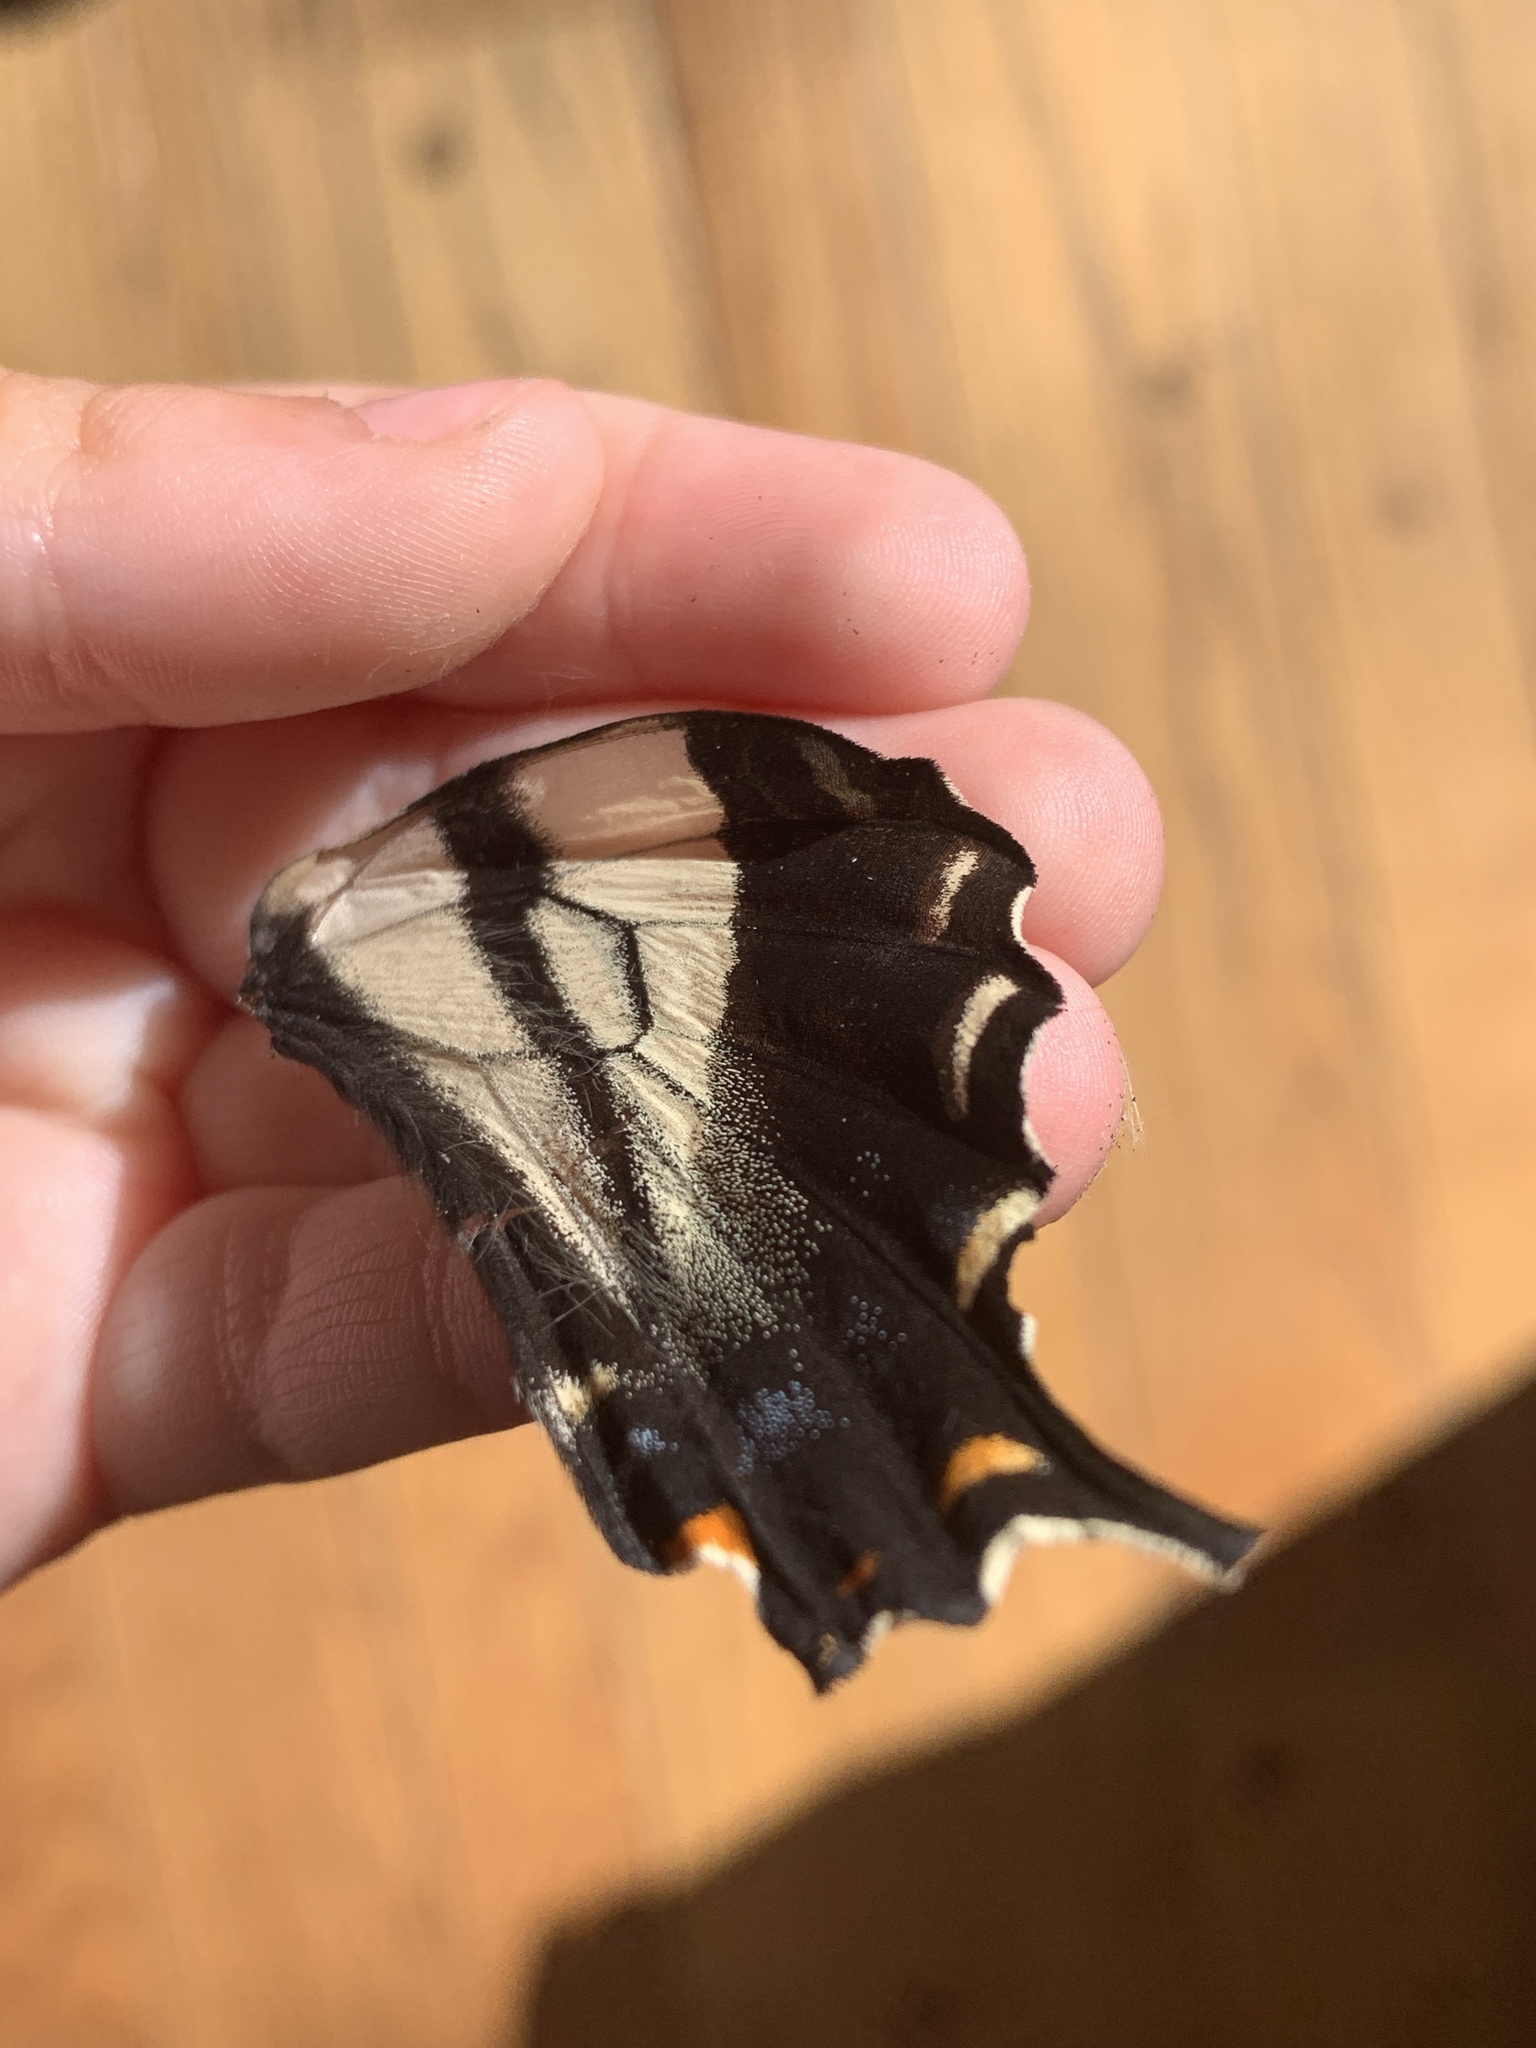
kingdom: Animalia
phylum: Arthropoda
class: Insecta
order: Lepidoptera
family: Papilionidae
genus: Papilio
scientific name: Papilio eurymedon
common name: Pale tiger swallowtail
